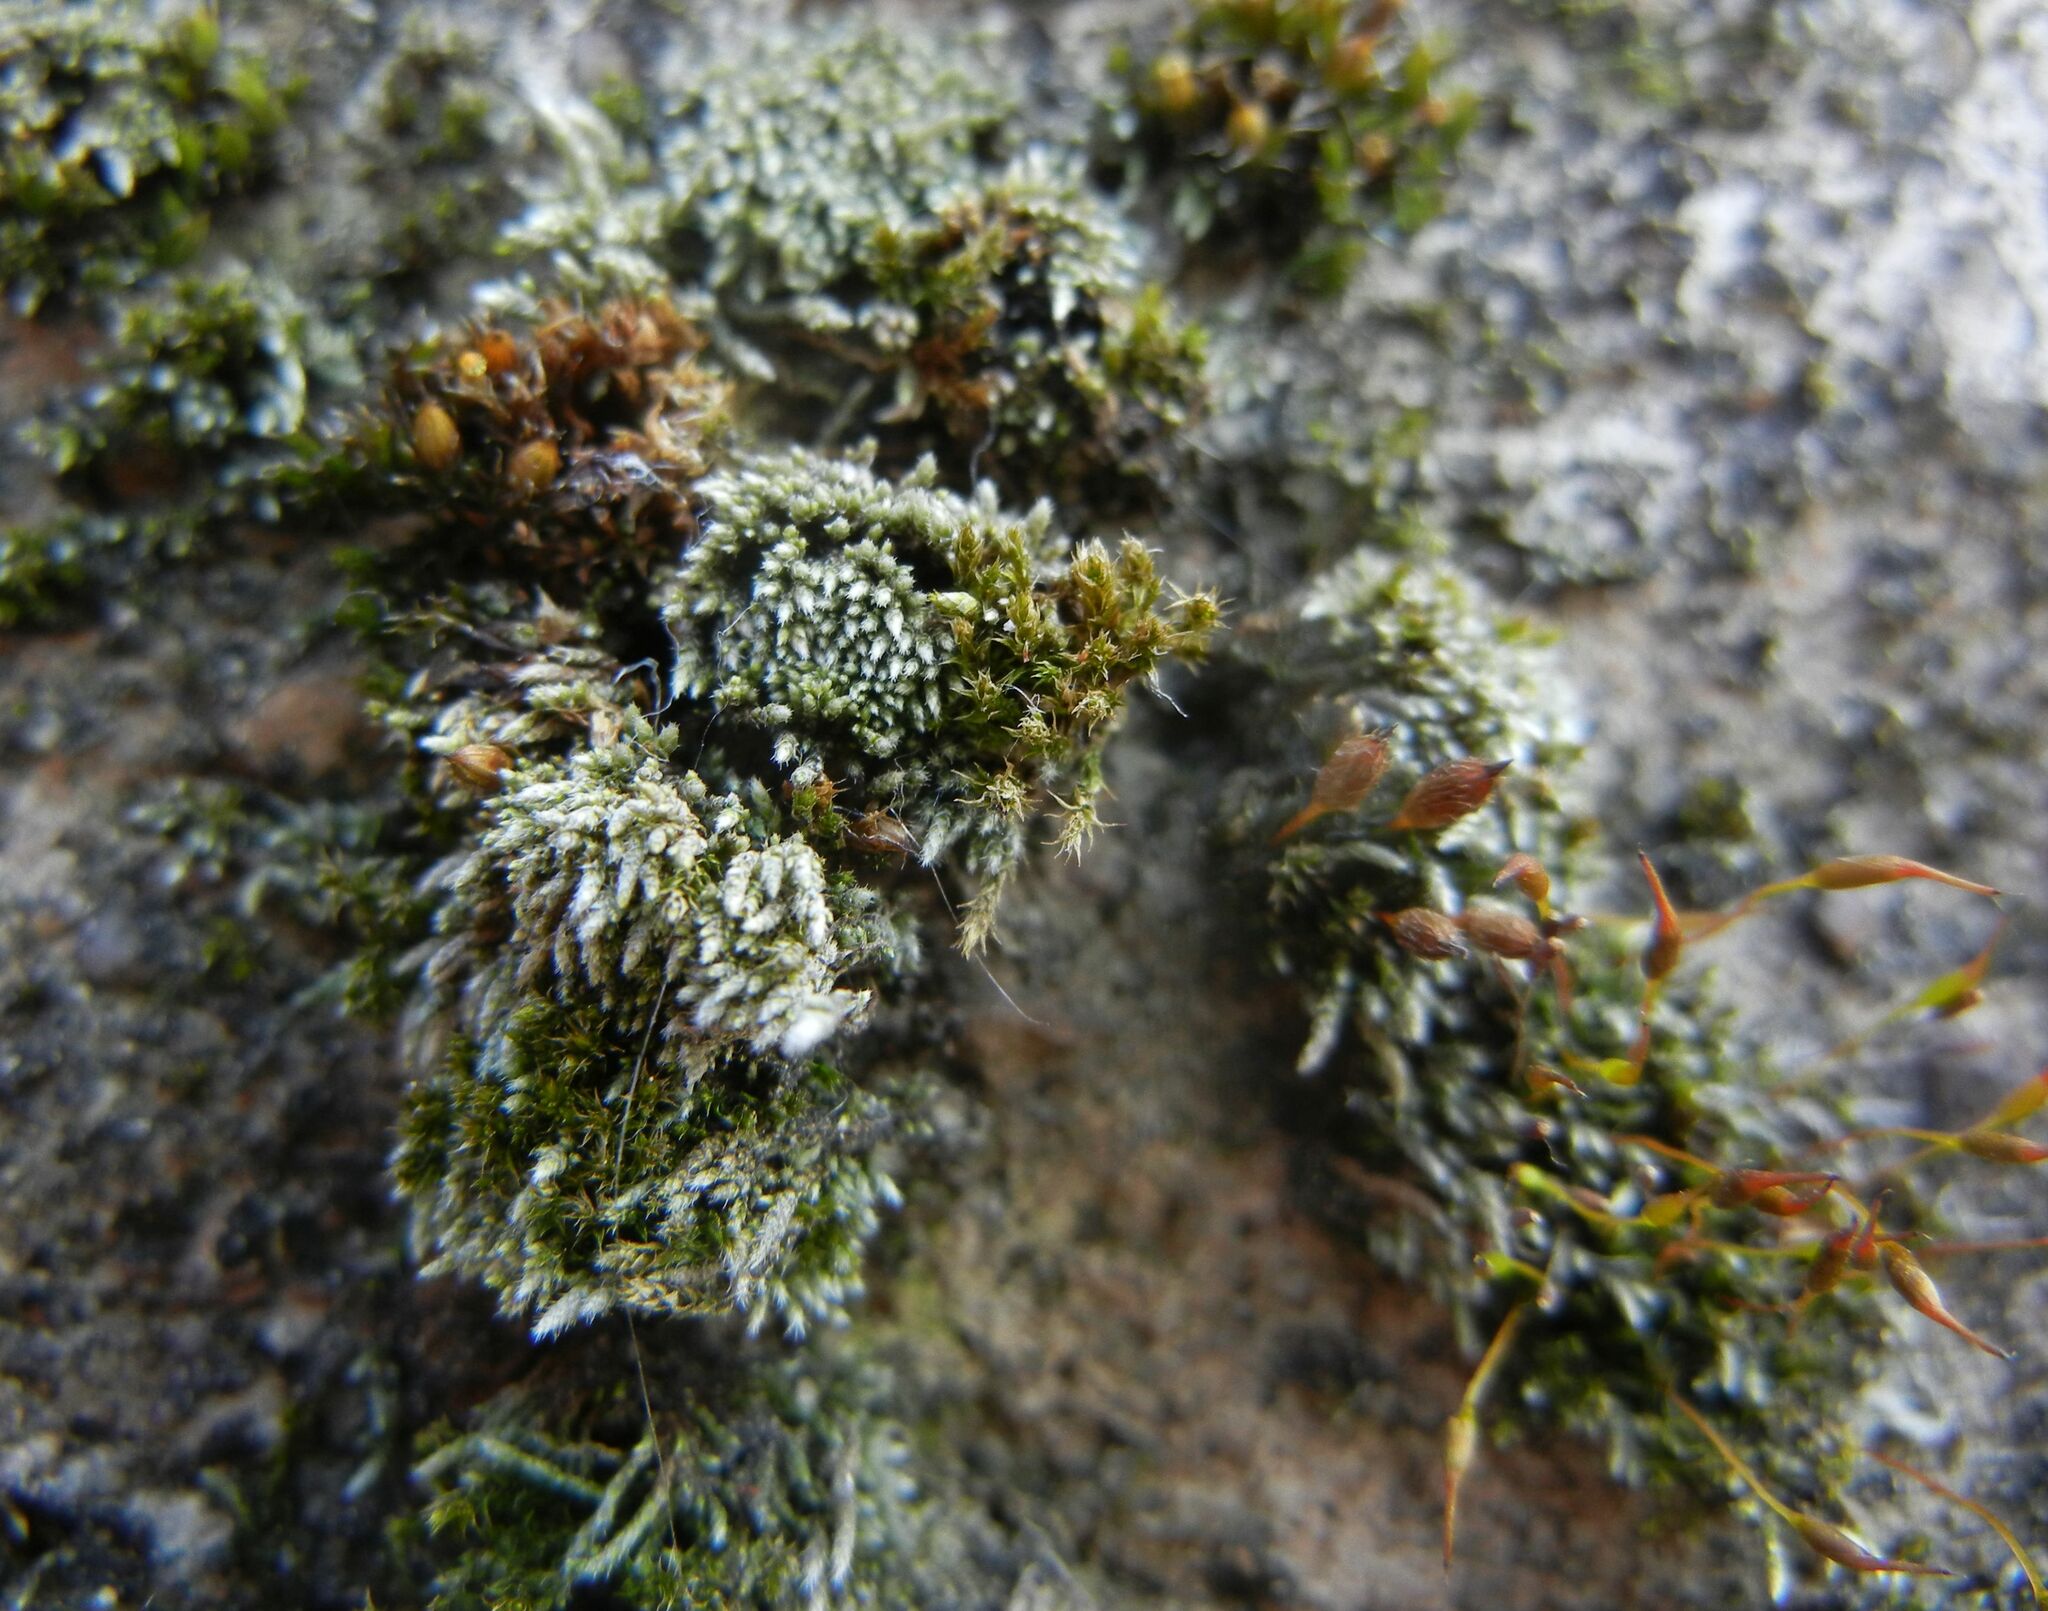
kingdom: Plantae
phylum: Bryophyta
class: Bryopsida
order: Bryales
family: Bryaceae
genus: Bryum
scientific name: Bryum argenteum
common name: Silver-moss
